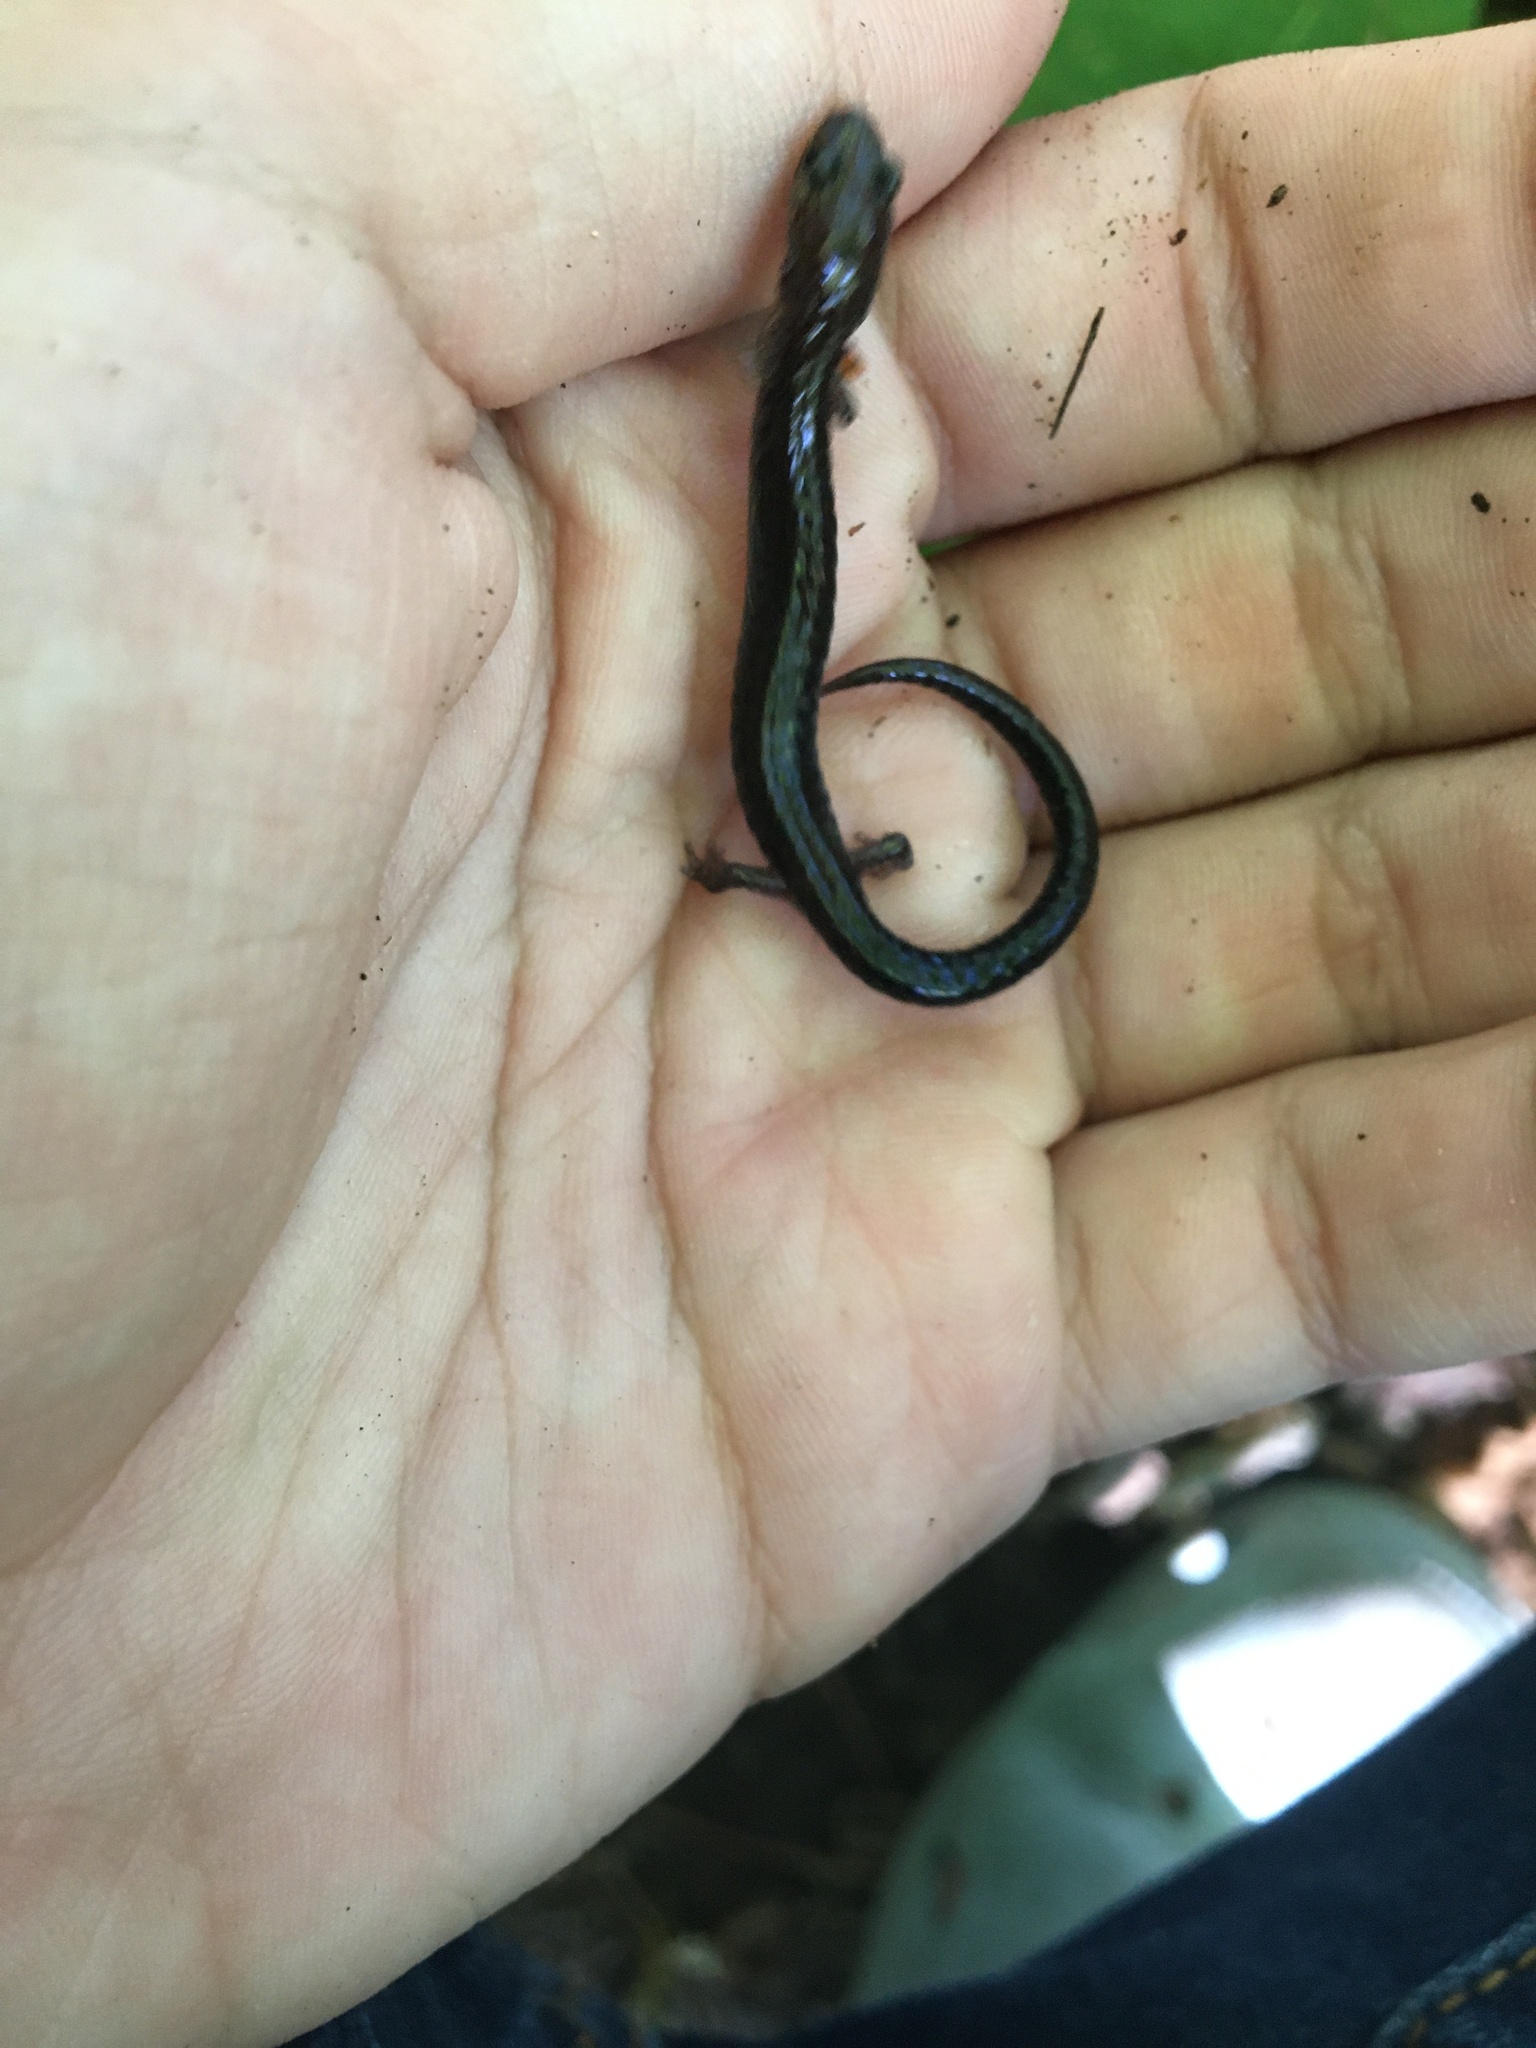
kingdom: Animalia
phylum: Chordata
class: Amphibia
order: Caudata
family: Plethodontidae
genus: Plethodon
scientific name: Plethodon cinereus
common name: Redback salamander
